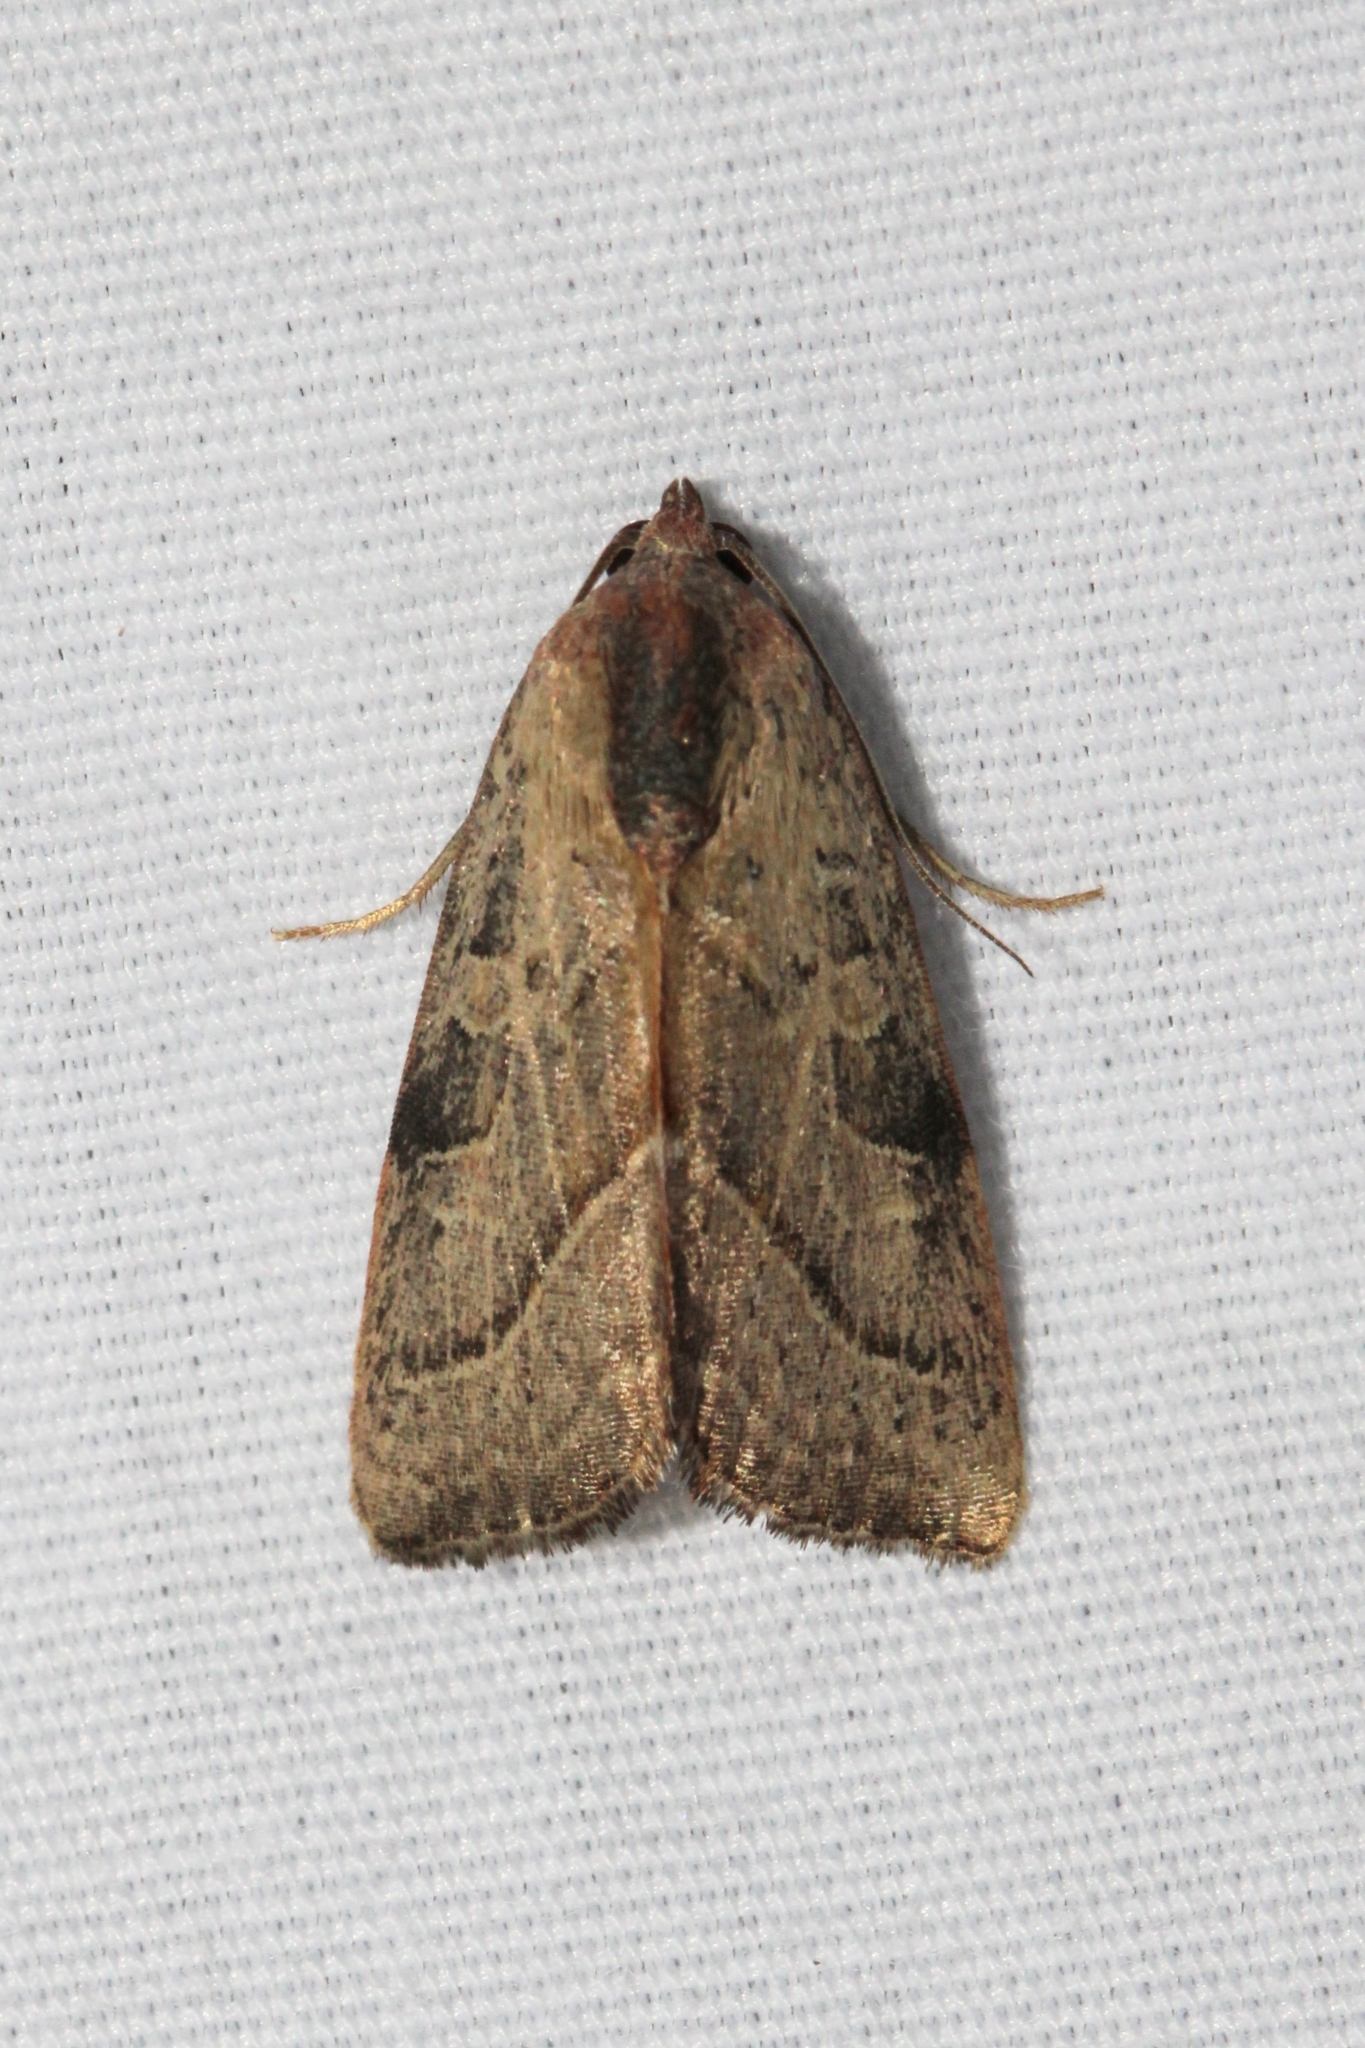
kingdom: Animalia
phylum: Arthropoda
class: Insecta
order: Lepidoptera
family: Noctuidae
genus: Galgula
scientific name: Galgula partita
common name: Wedgeling
